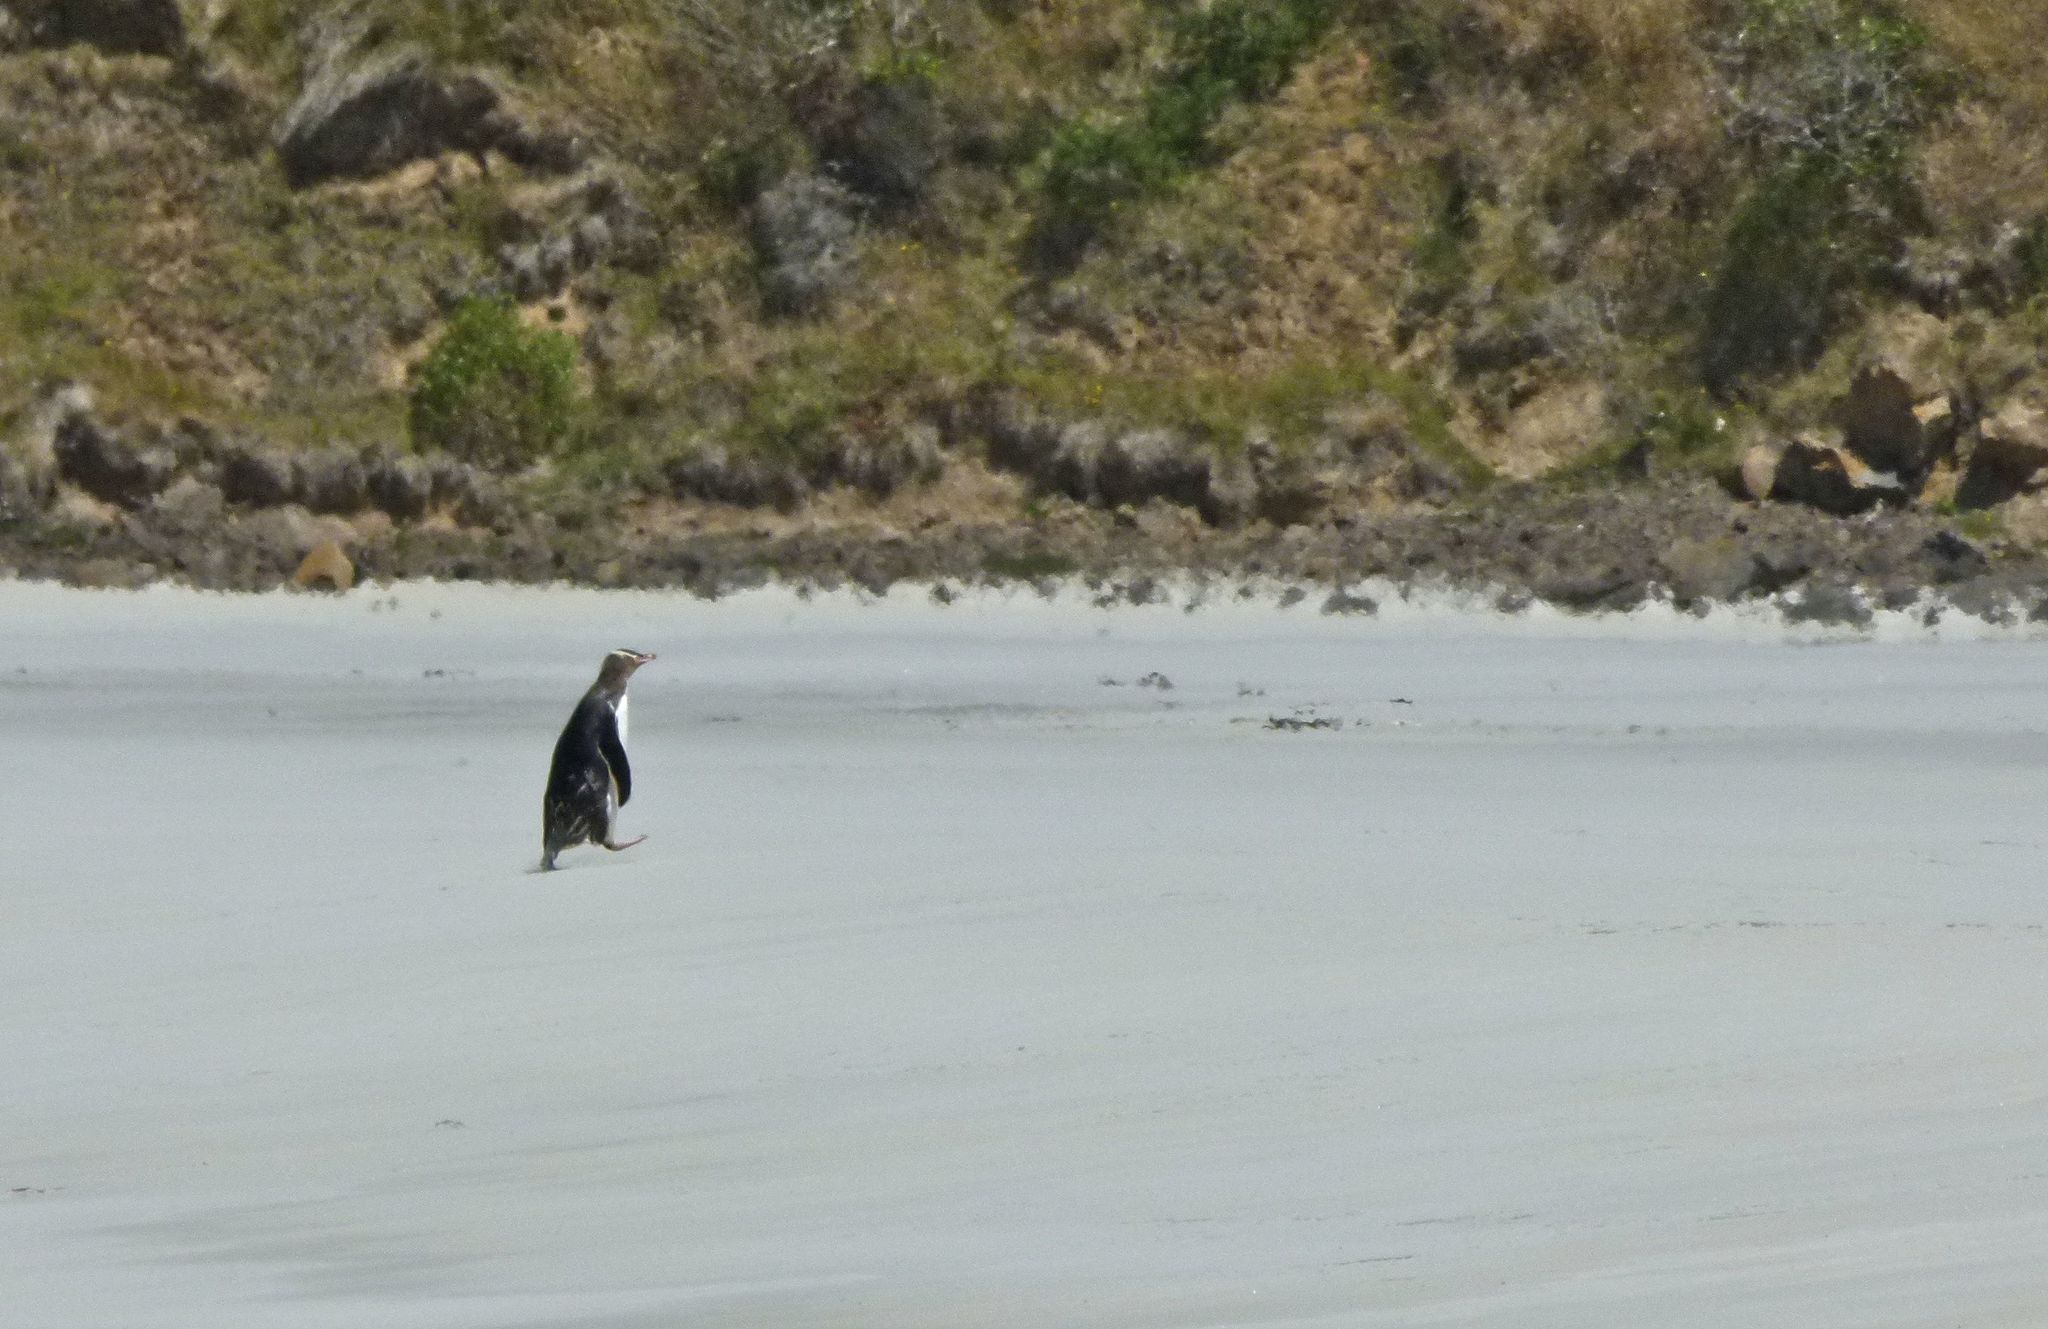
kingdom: Animalia
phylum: Chordata
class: Aves
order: Sphenisciformes
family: Spheniscidae
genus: Megadyptes
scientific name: Megadyptes antipodes
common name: Yellow-eyed penguin
